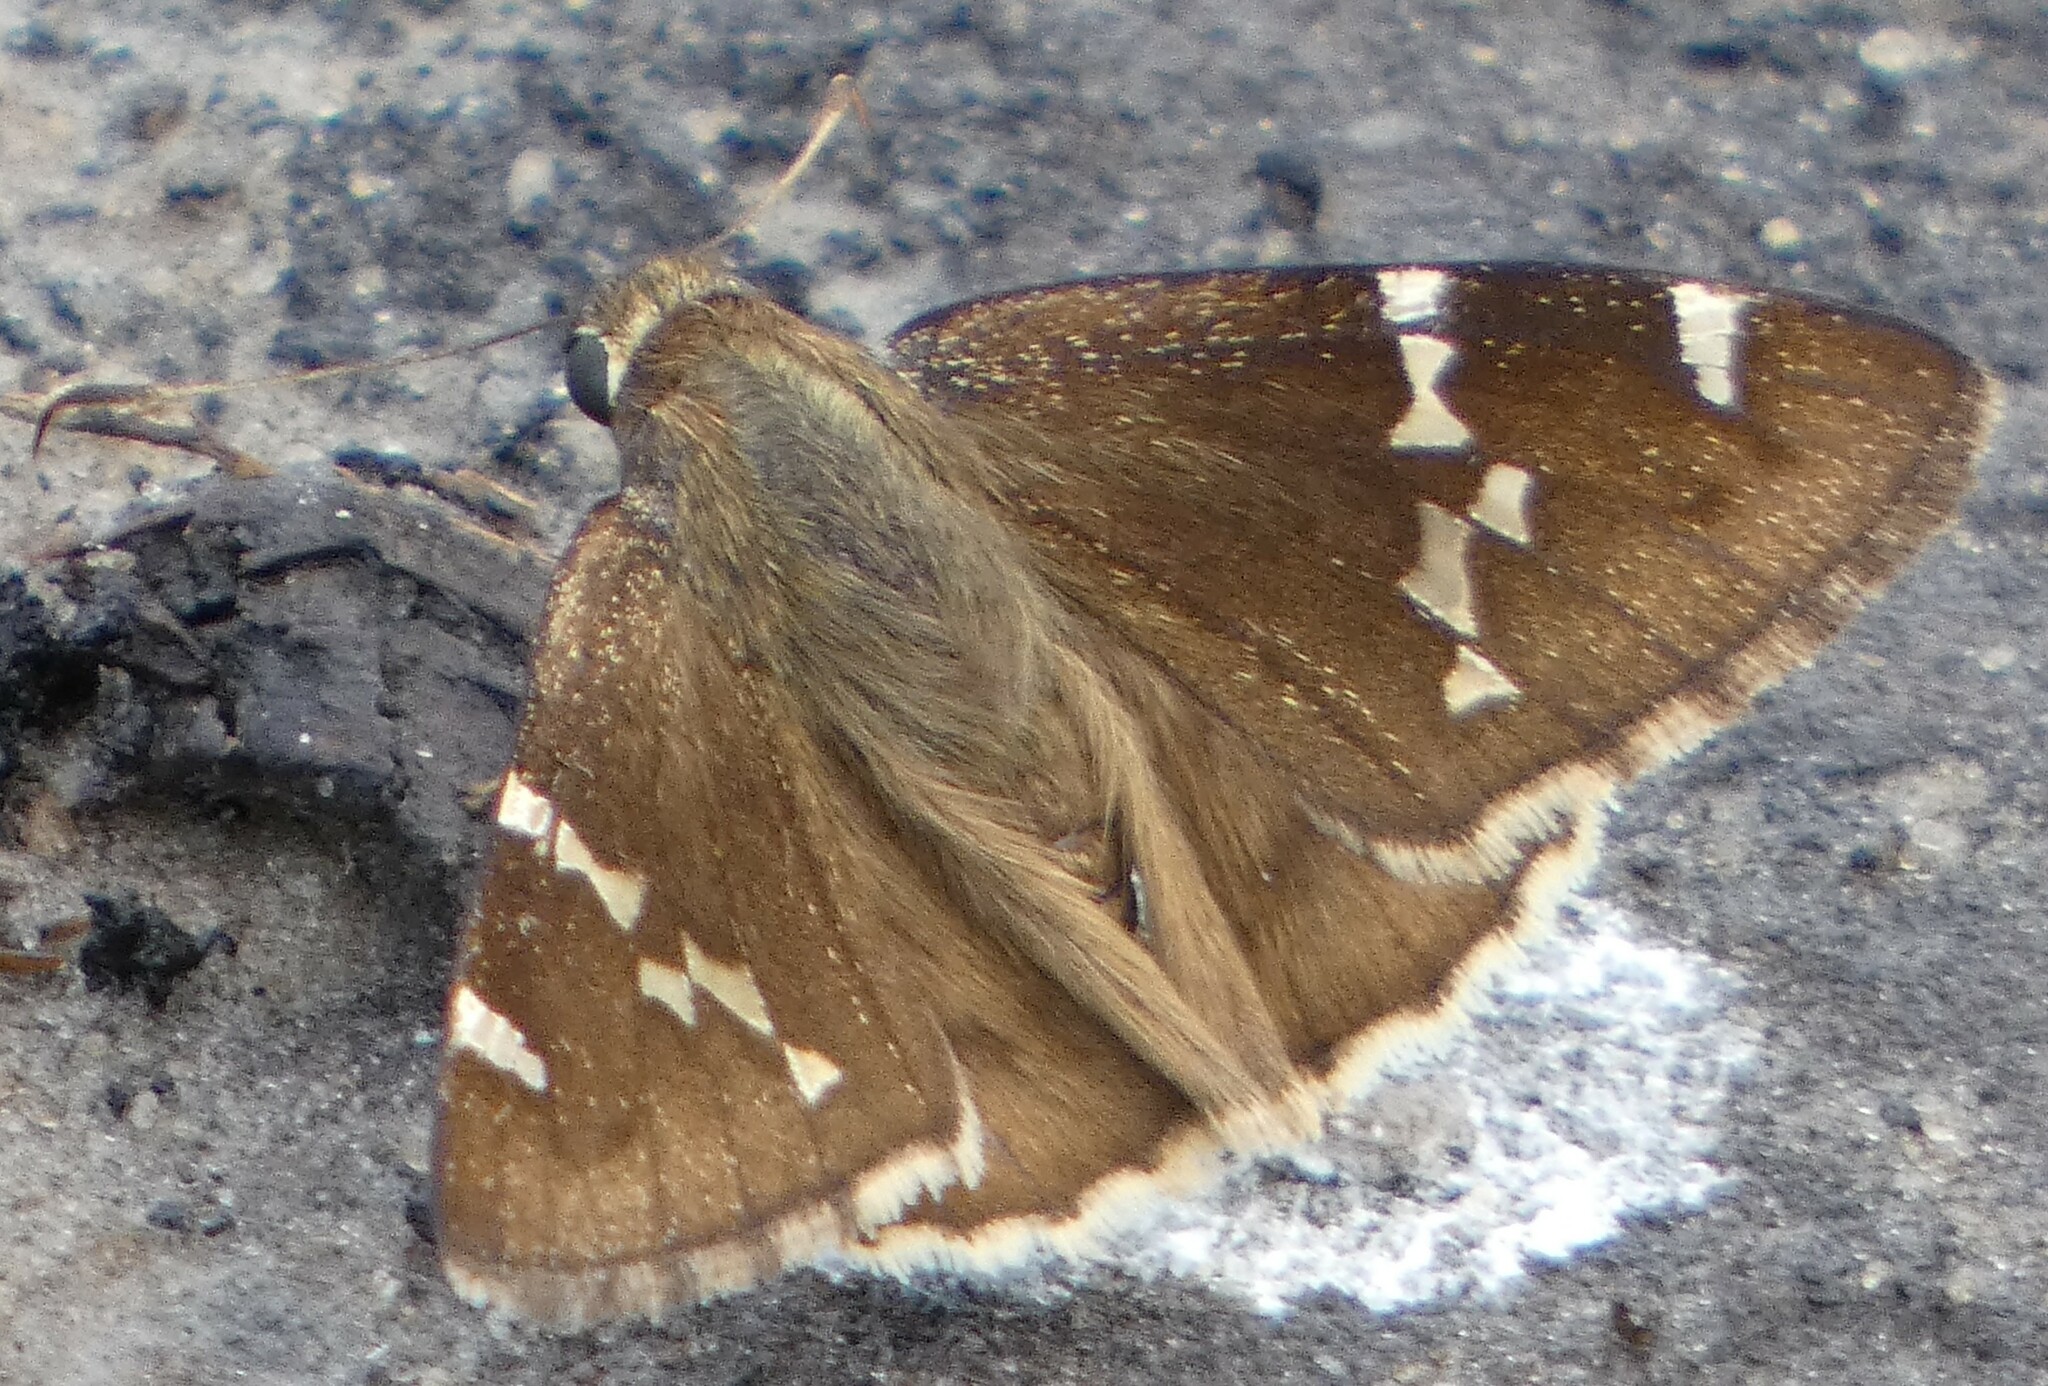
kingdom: Animalia
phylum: Arthropoda
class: Insecta
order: Lepidoptera
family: Hesperiidae
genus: Thorybes
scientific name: Thorybes daunus
